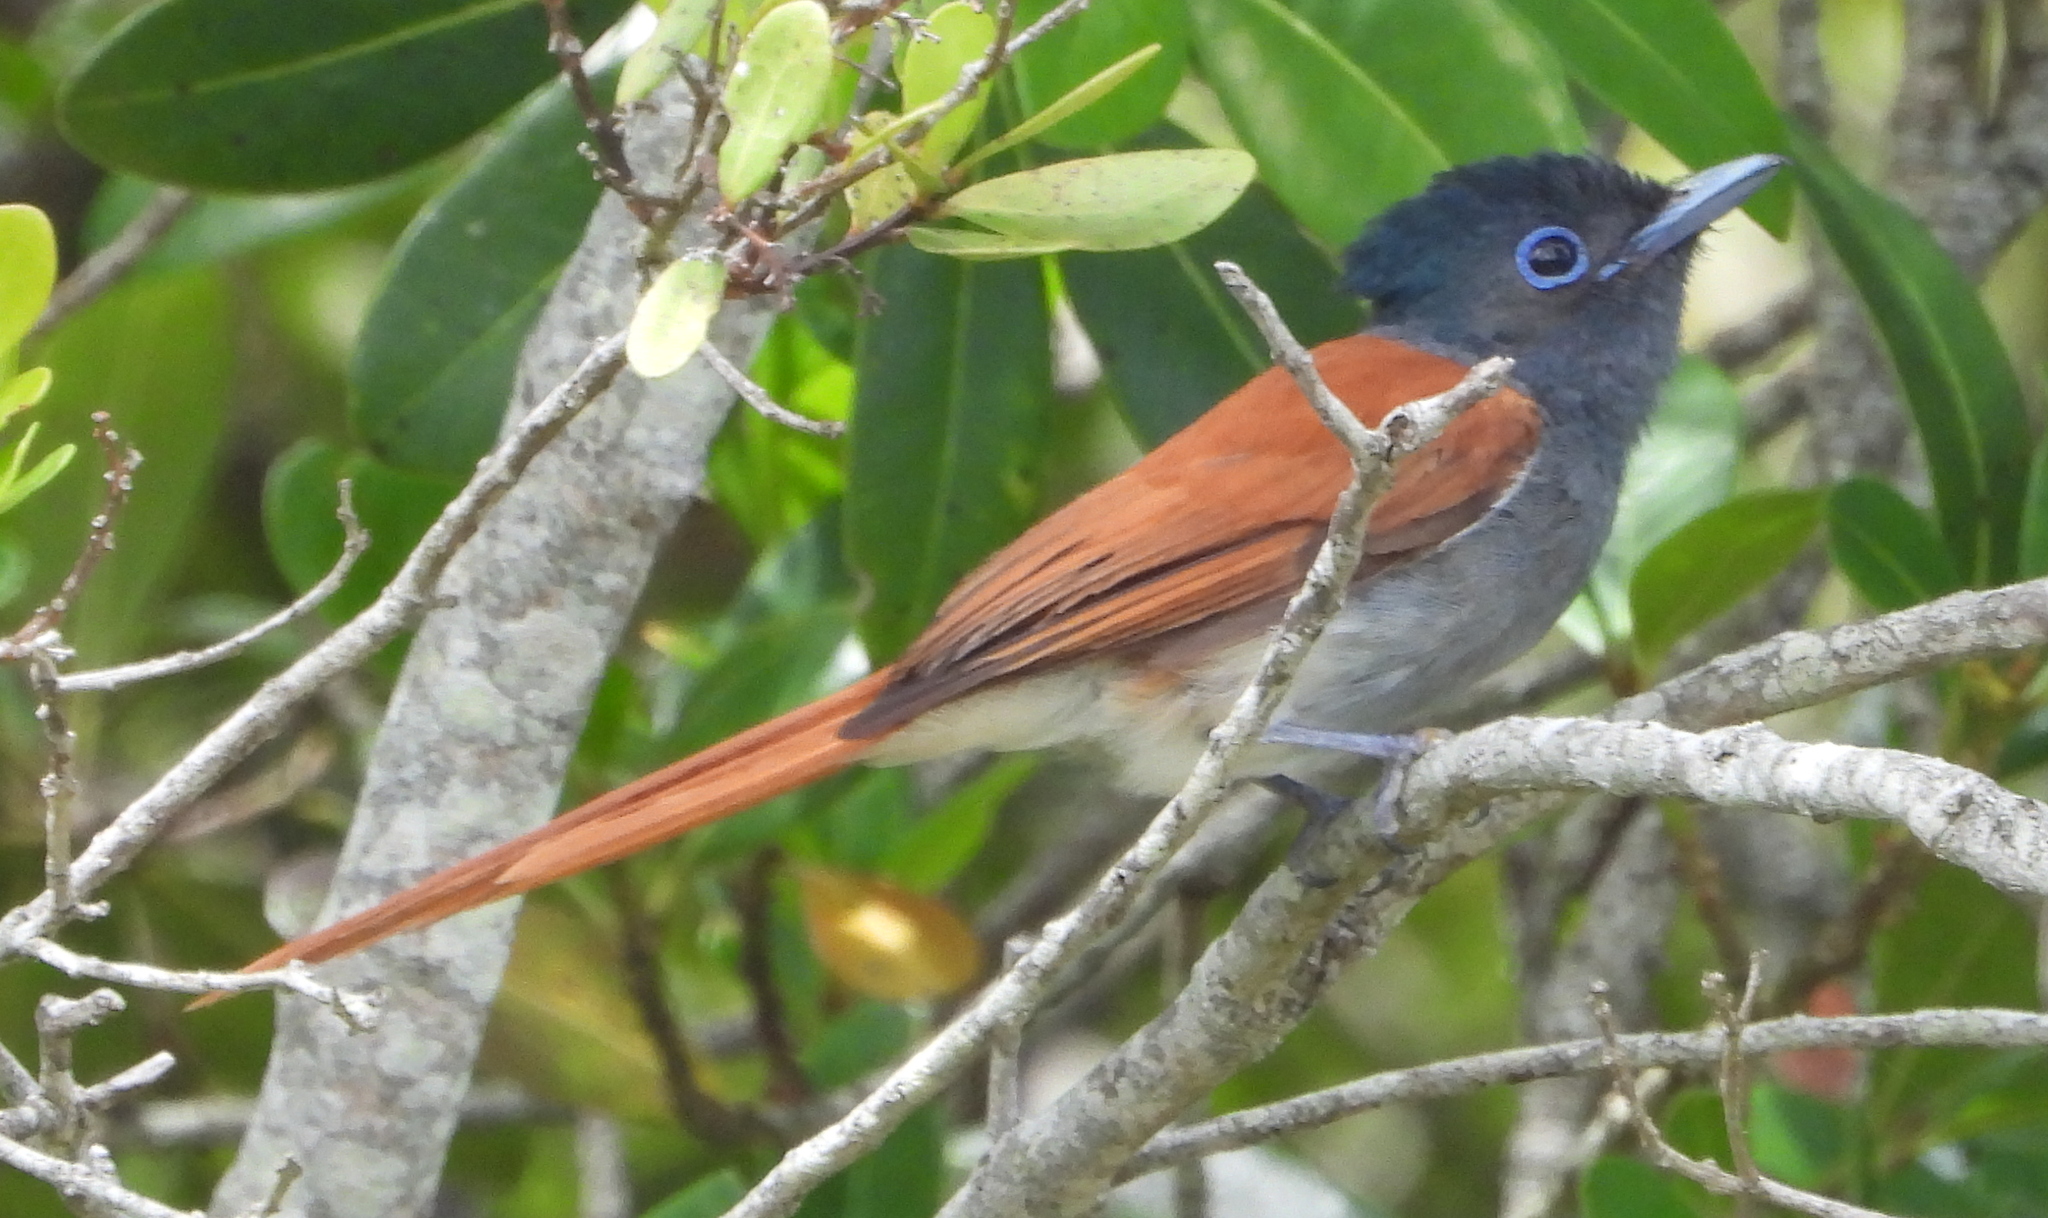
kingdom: Animalia
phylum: Chordata
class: Aves
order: Passeriformes
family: Monarchidae
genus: Terpsiphone
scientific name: Terpsiphone viridis
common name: African paradise flycatcher
